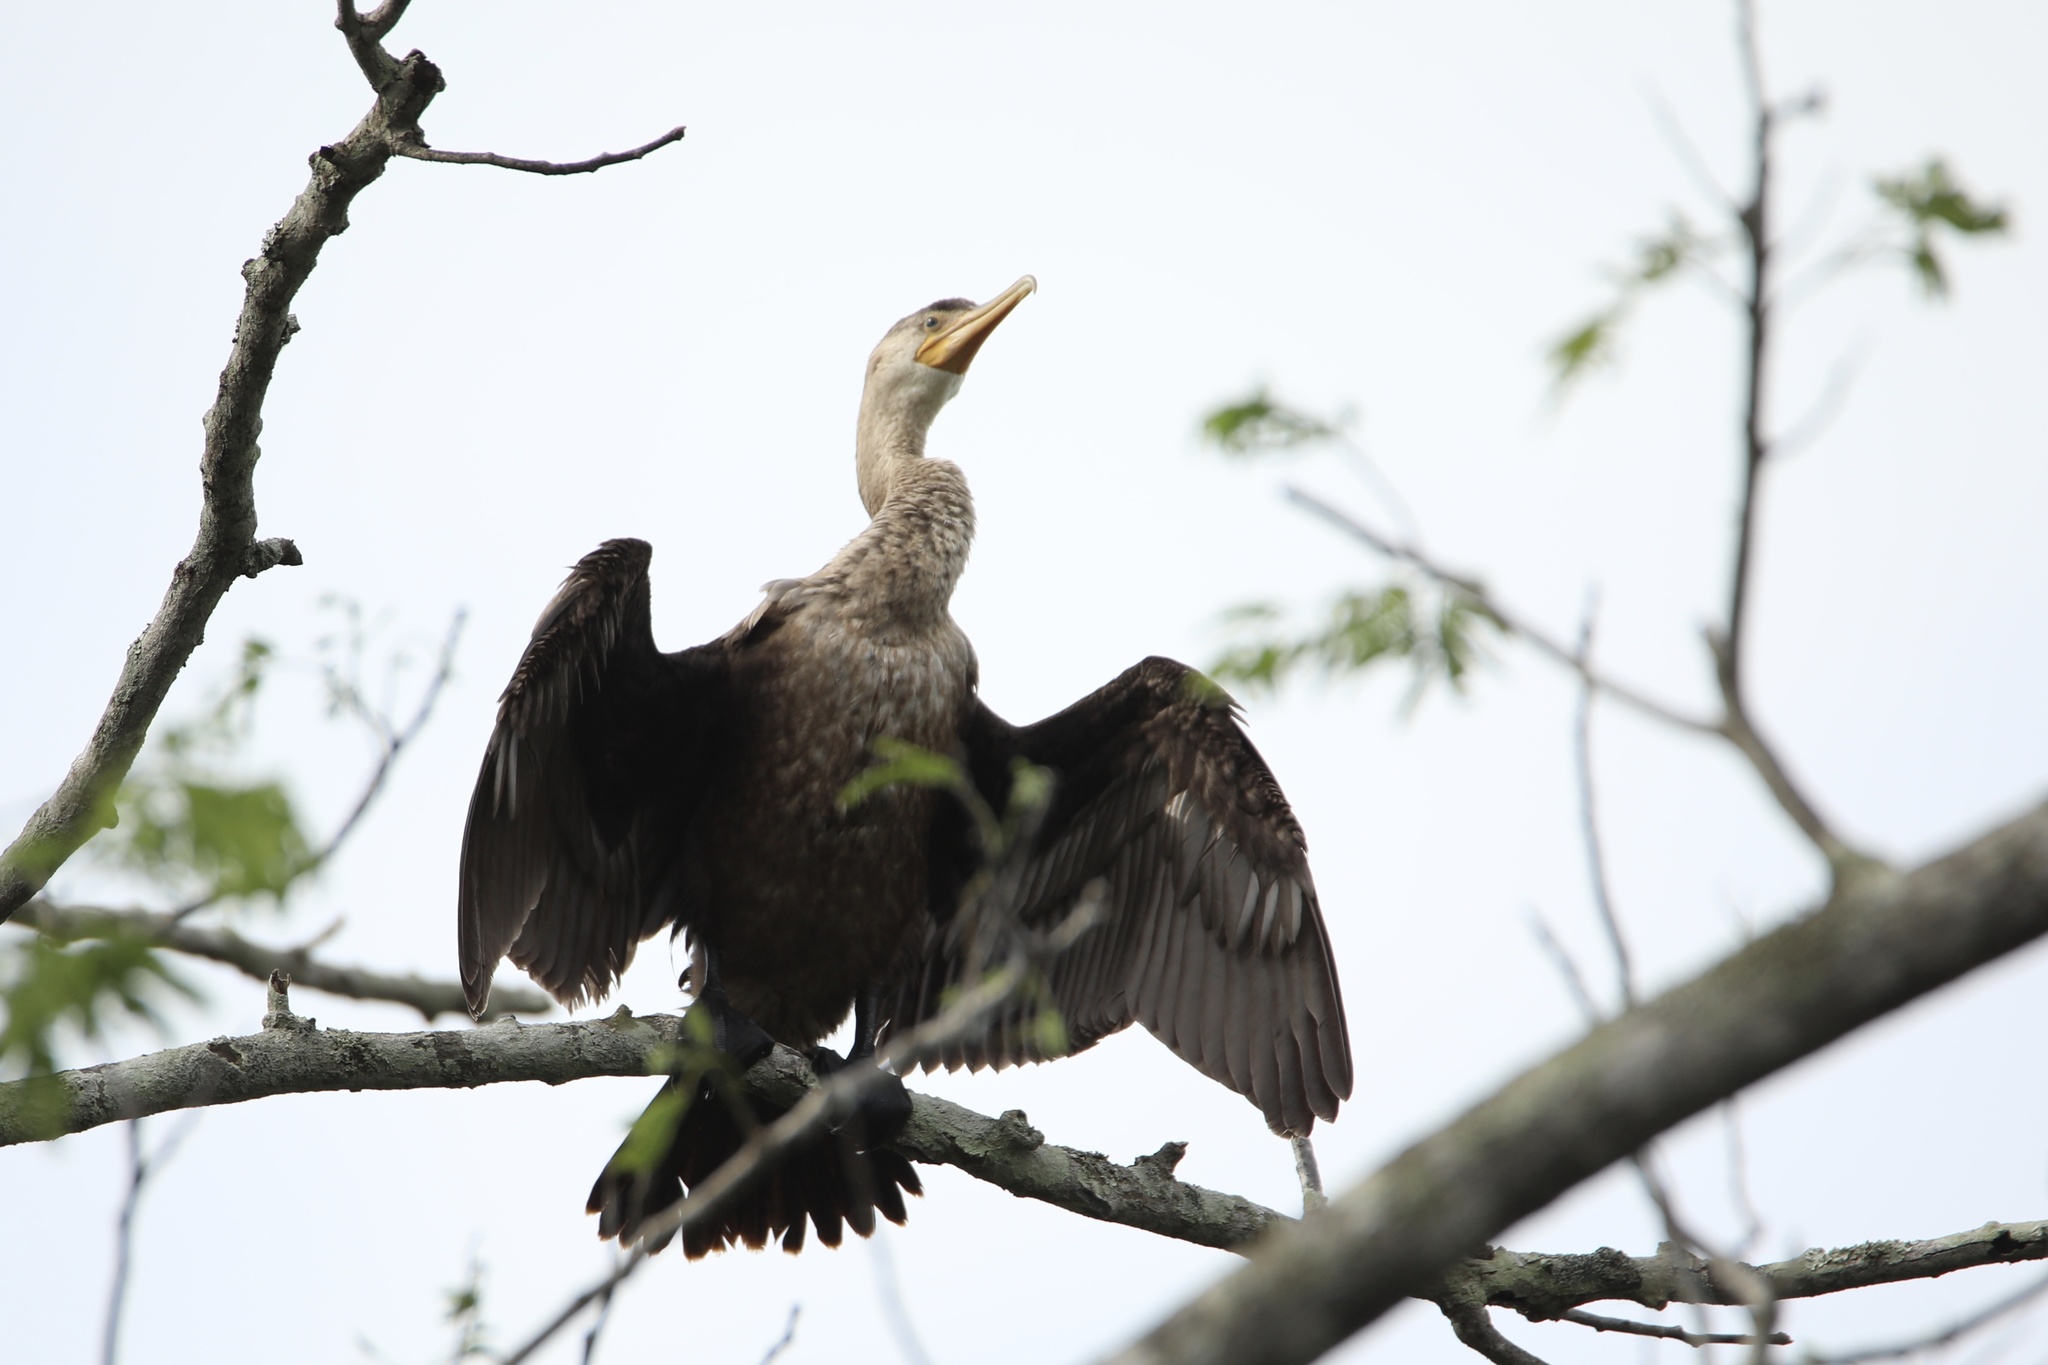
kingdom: Animalia
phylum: Chordata
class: Aves
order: Suliformes
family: Phalacrocoracidae
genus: Phalacrocorax
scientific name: Phalacrocorax brasilianus
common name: Neotropic cormorant
